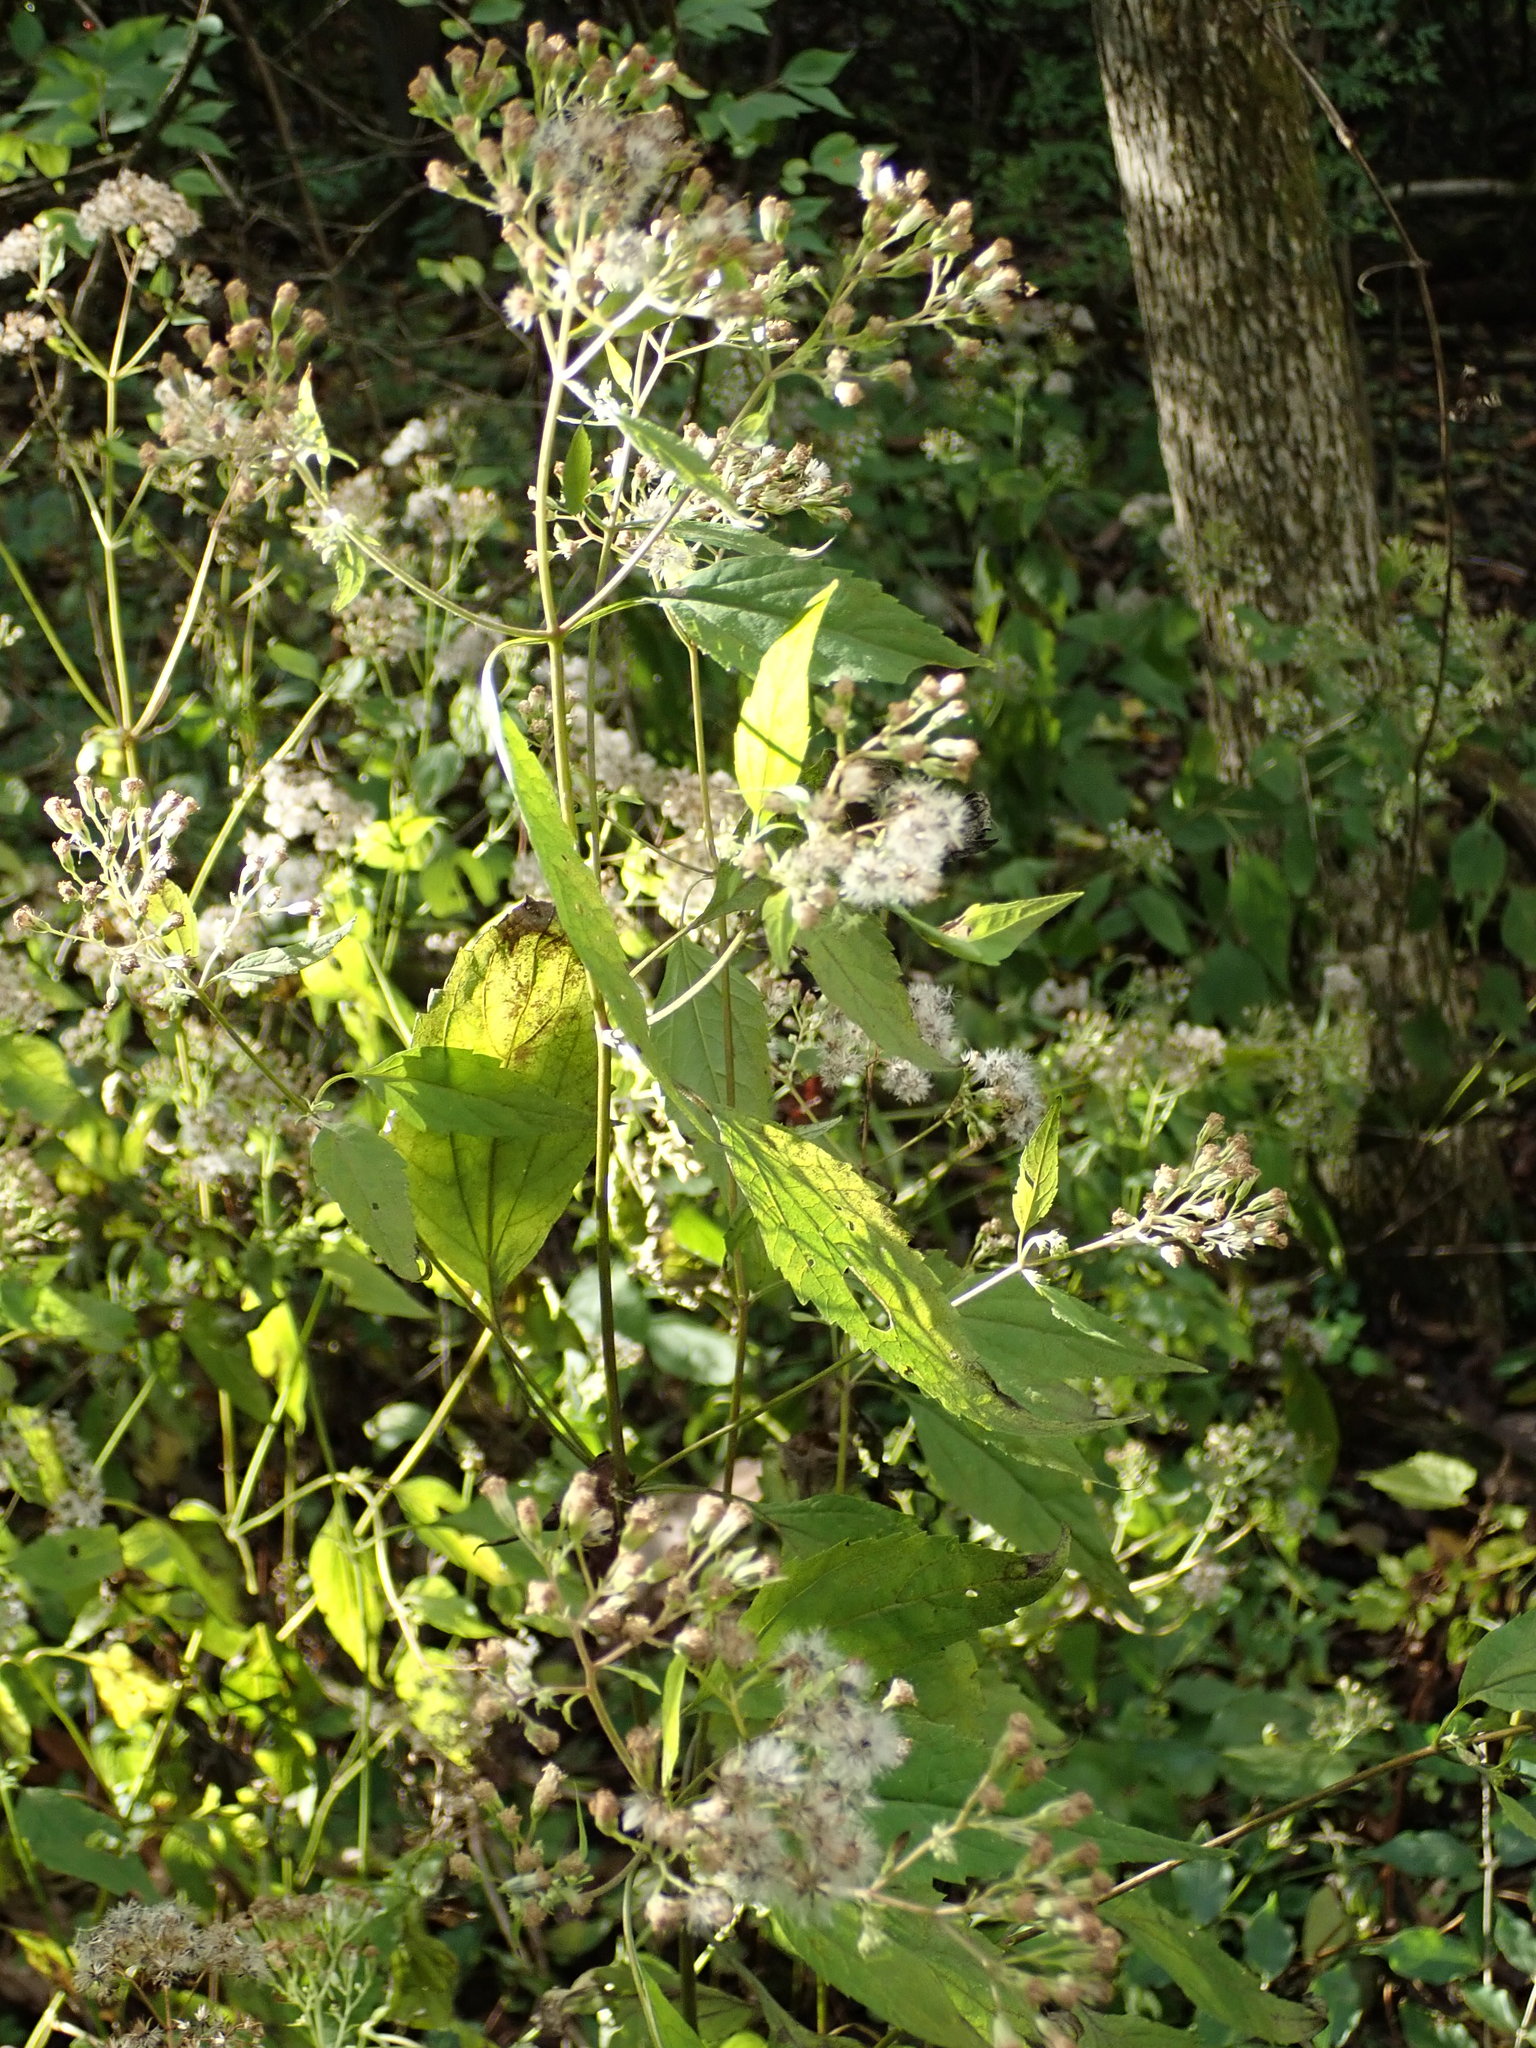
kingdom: Plantae
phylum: Tracheophyta
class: Magnoliopsida
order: Asterales
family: Asteraceae
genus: Ageratina
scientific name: Ageratina altissima
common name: White snakeroot
